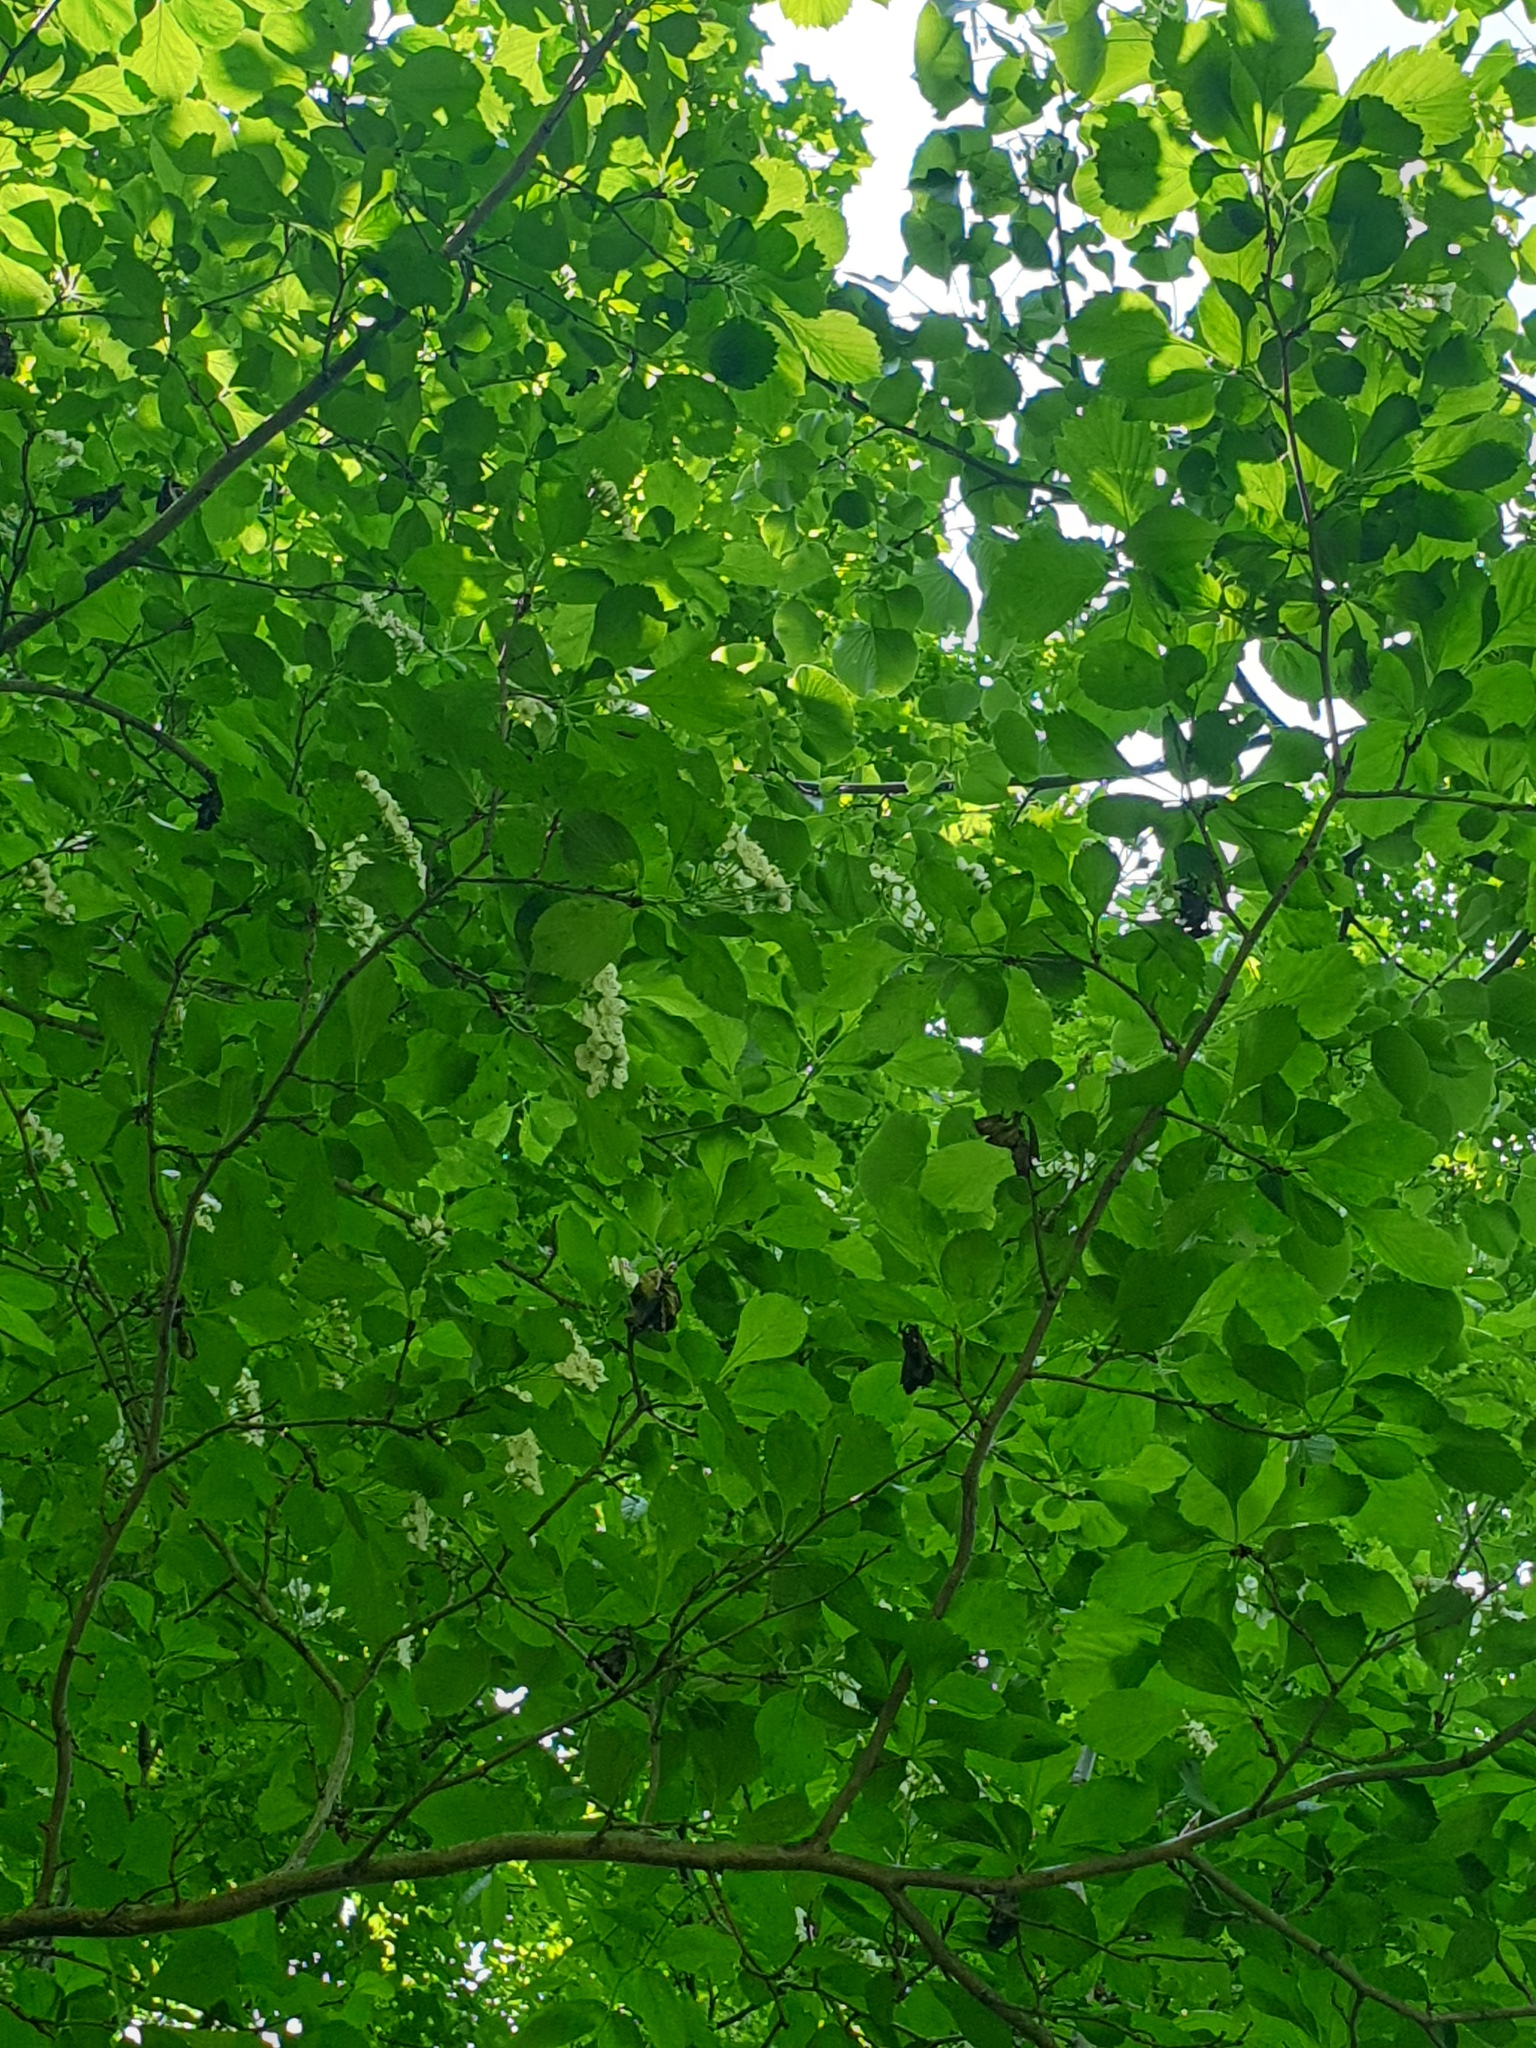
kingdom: Plantae
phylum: Tracheophyta
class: Magnoliopsida
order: Rosales
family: Rosaceae
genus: Crataegus
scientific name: Crataegus punctata
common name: Dotted hawthorn
